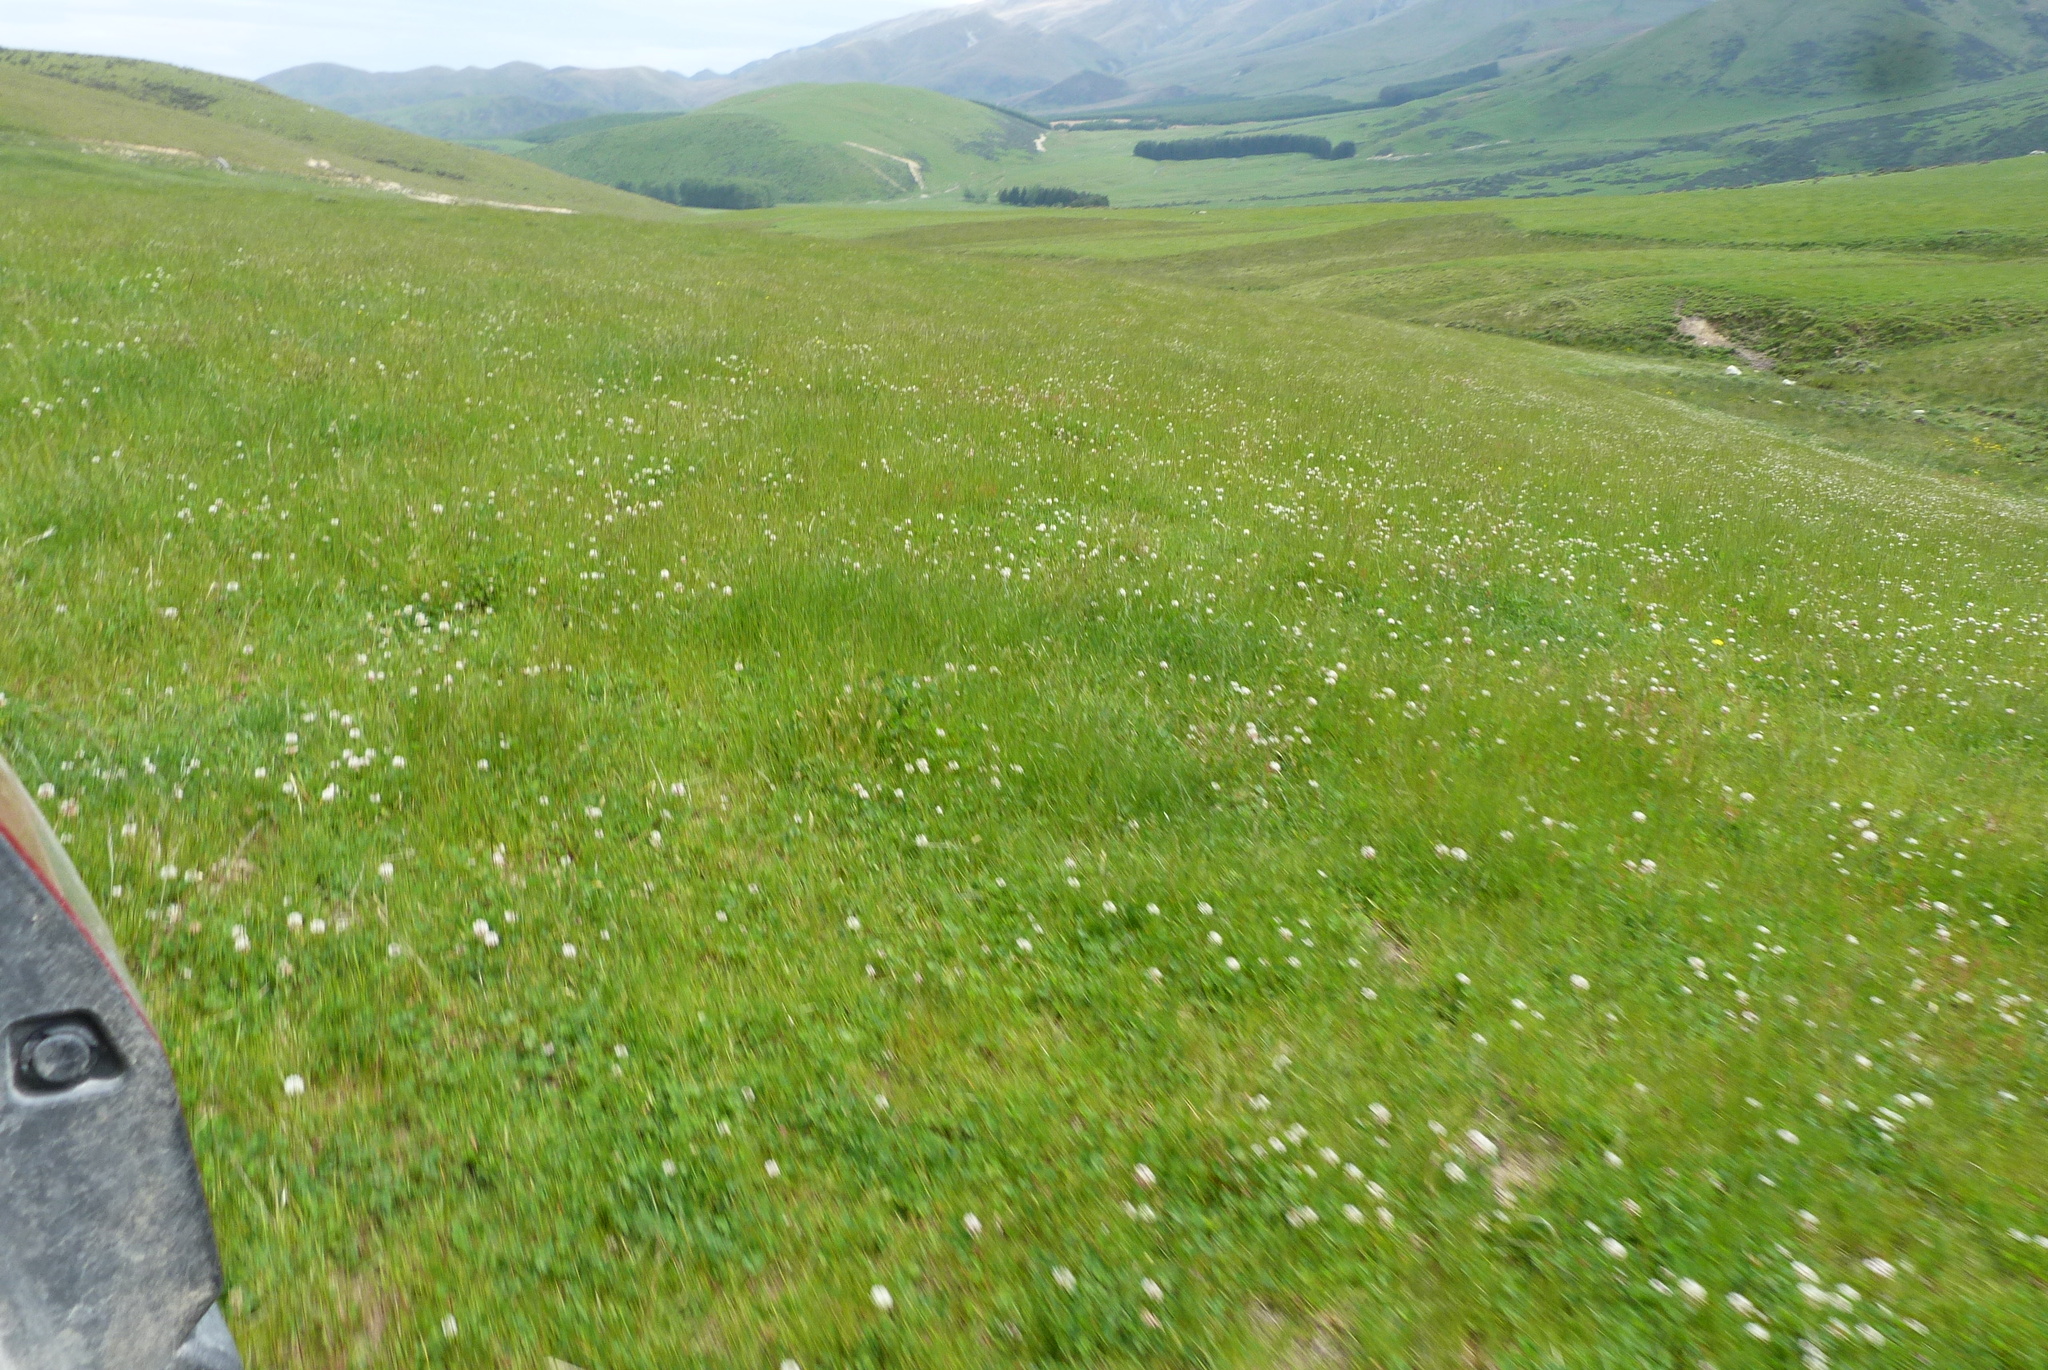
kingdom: Plantae
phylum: Tracheophyta
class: Liliopsida
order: Poales
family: Poaceae
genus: Lolium
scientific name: Lolium perenne
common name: Perennial ryegrass
